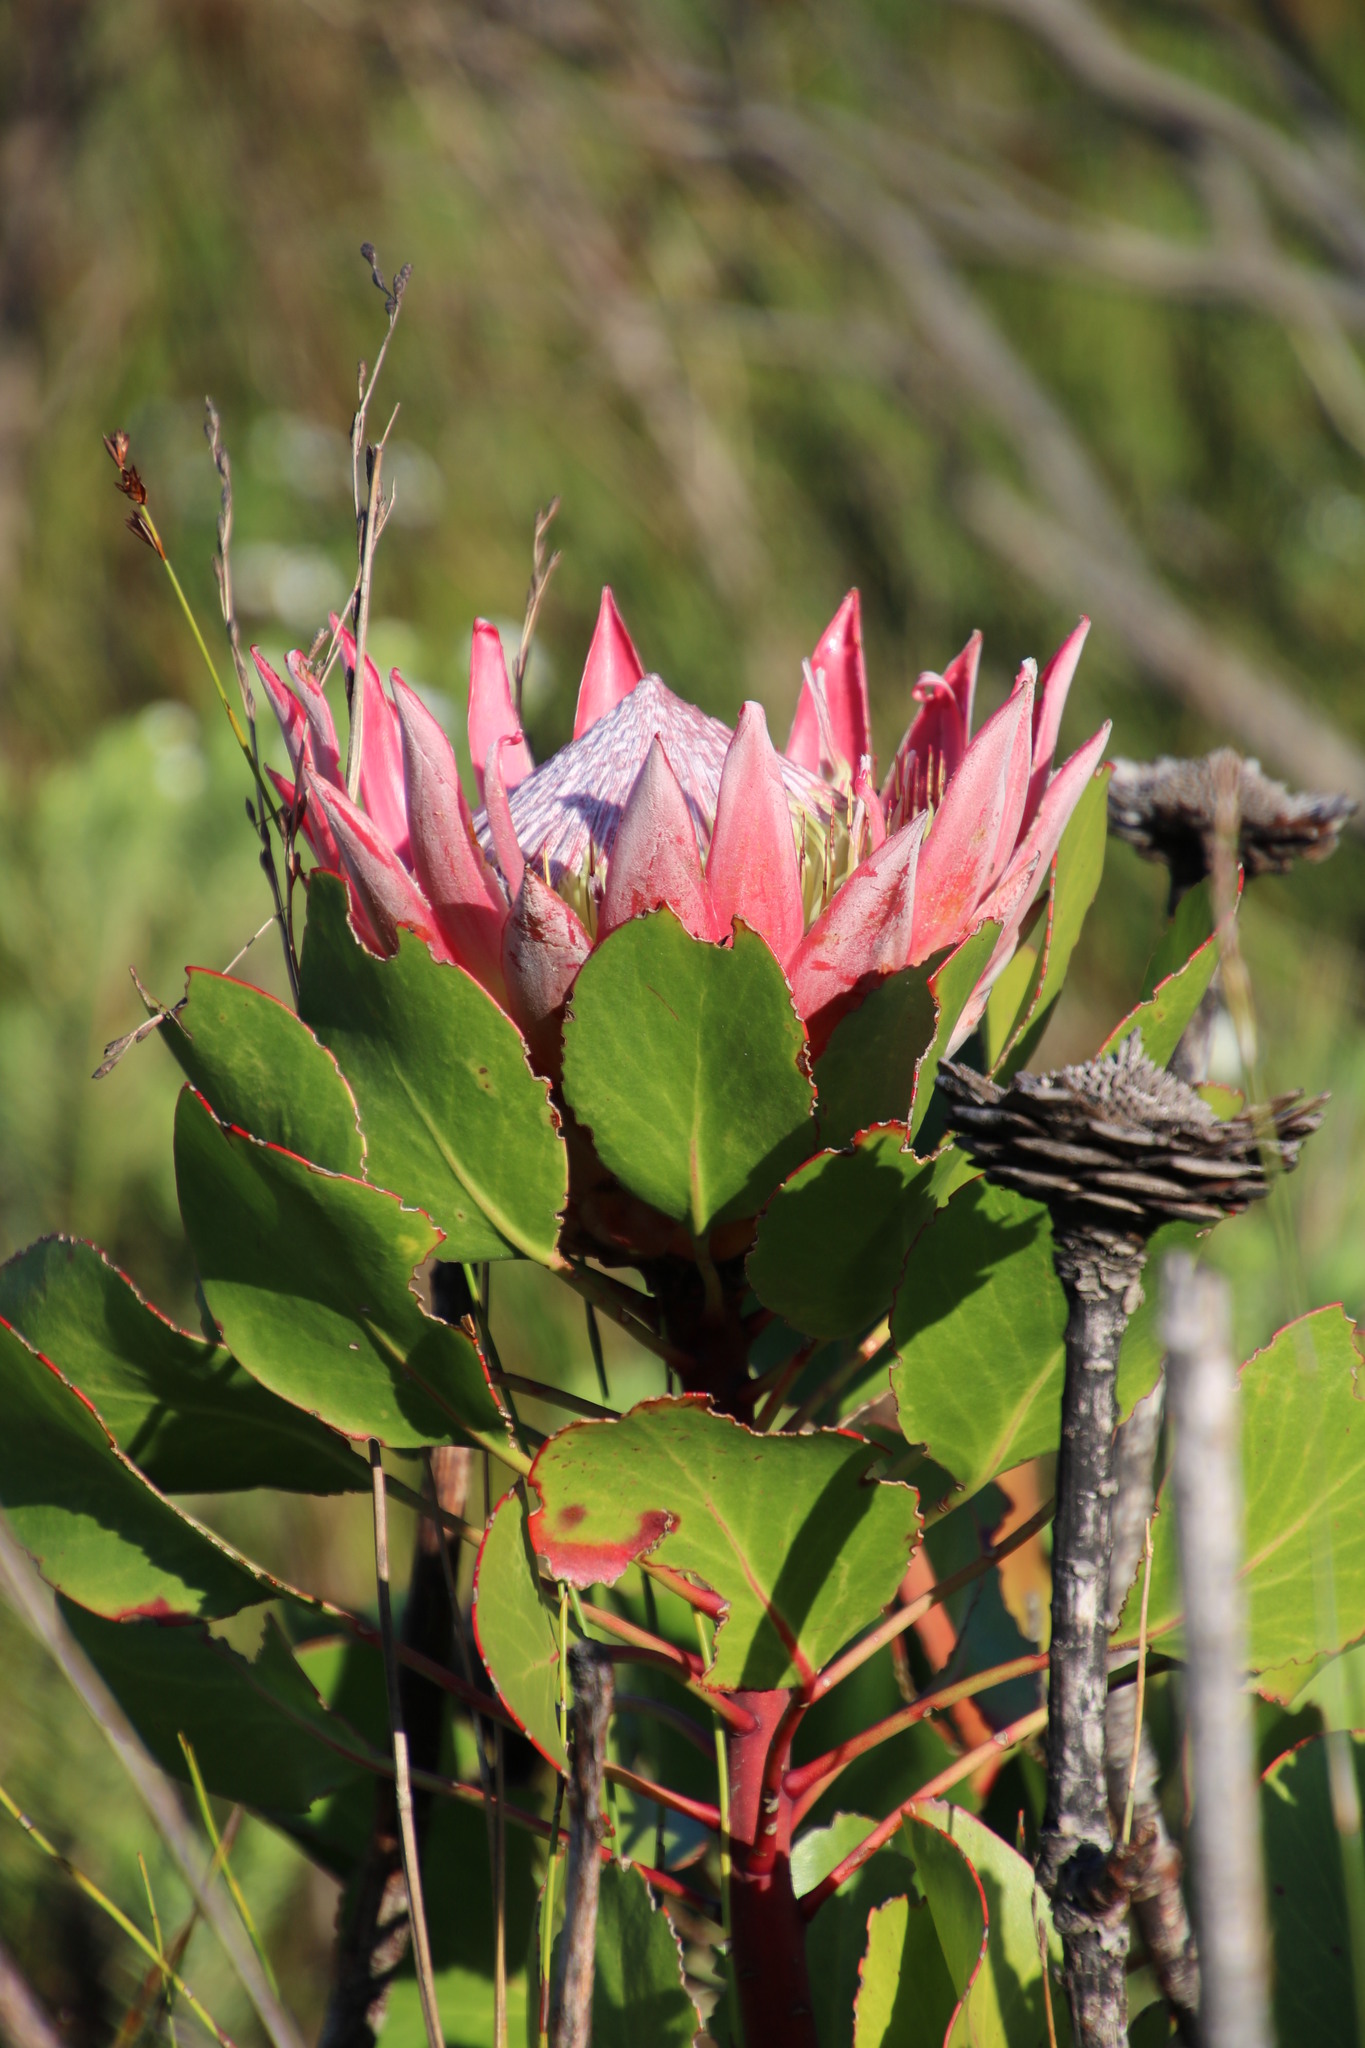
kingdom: Plantae
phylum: Tracheophyta
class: Magnoliopsida
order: Proteales
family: Proteaceae
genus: Protea
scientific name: Protea cynaroides
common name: King protea
